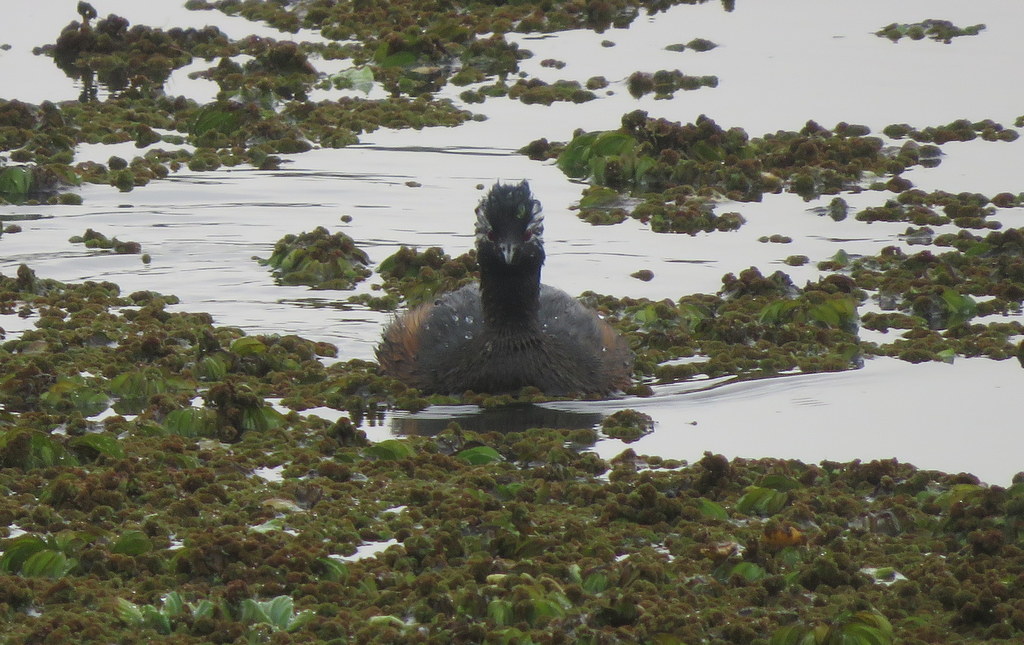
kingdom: Animalia
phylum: Chordata
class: Aves
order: Podicipediformes
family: Podicipedidae
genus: Rollandia
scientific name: Rollandia rolland
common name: White-tufted grebe
